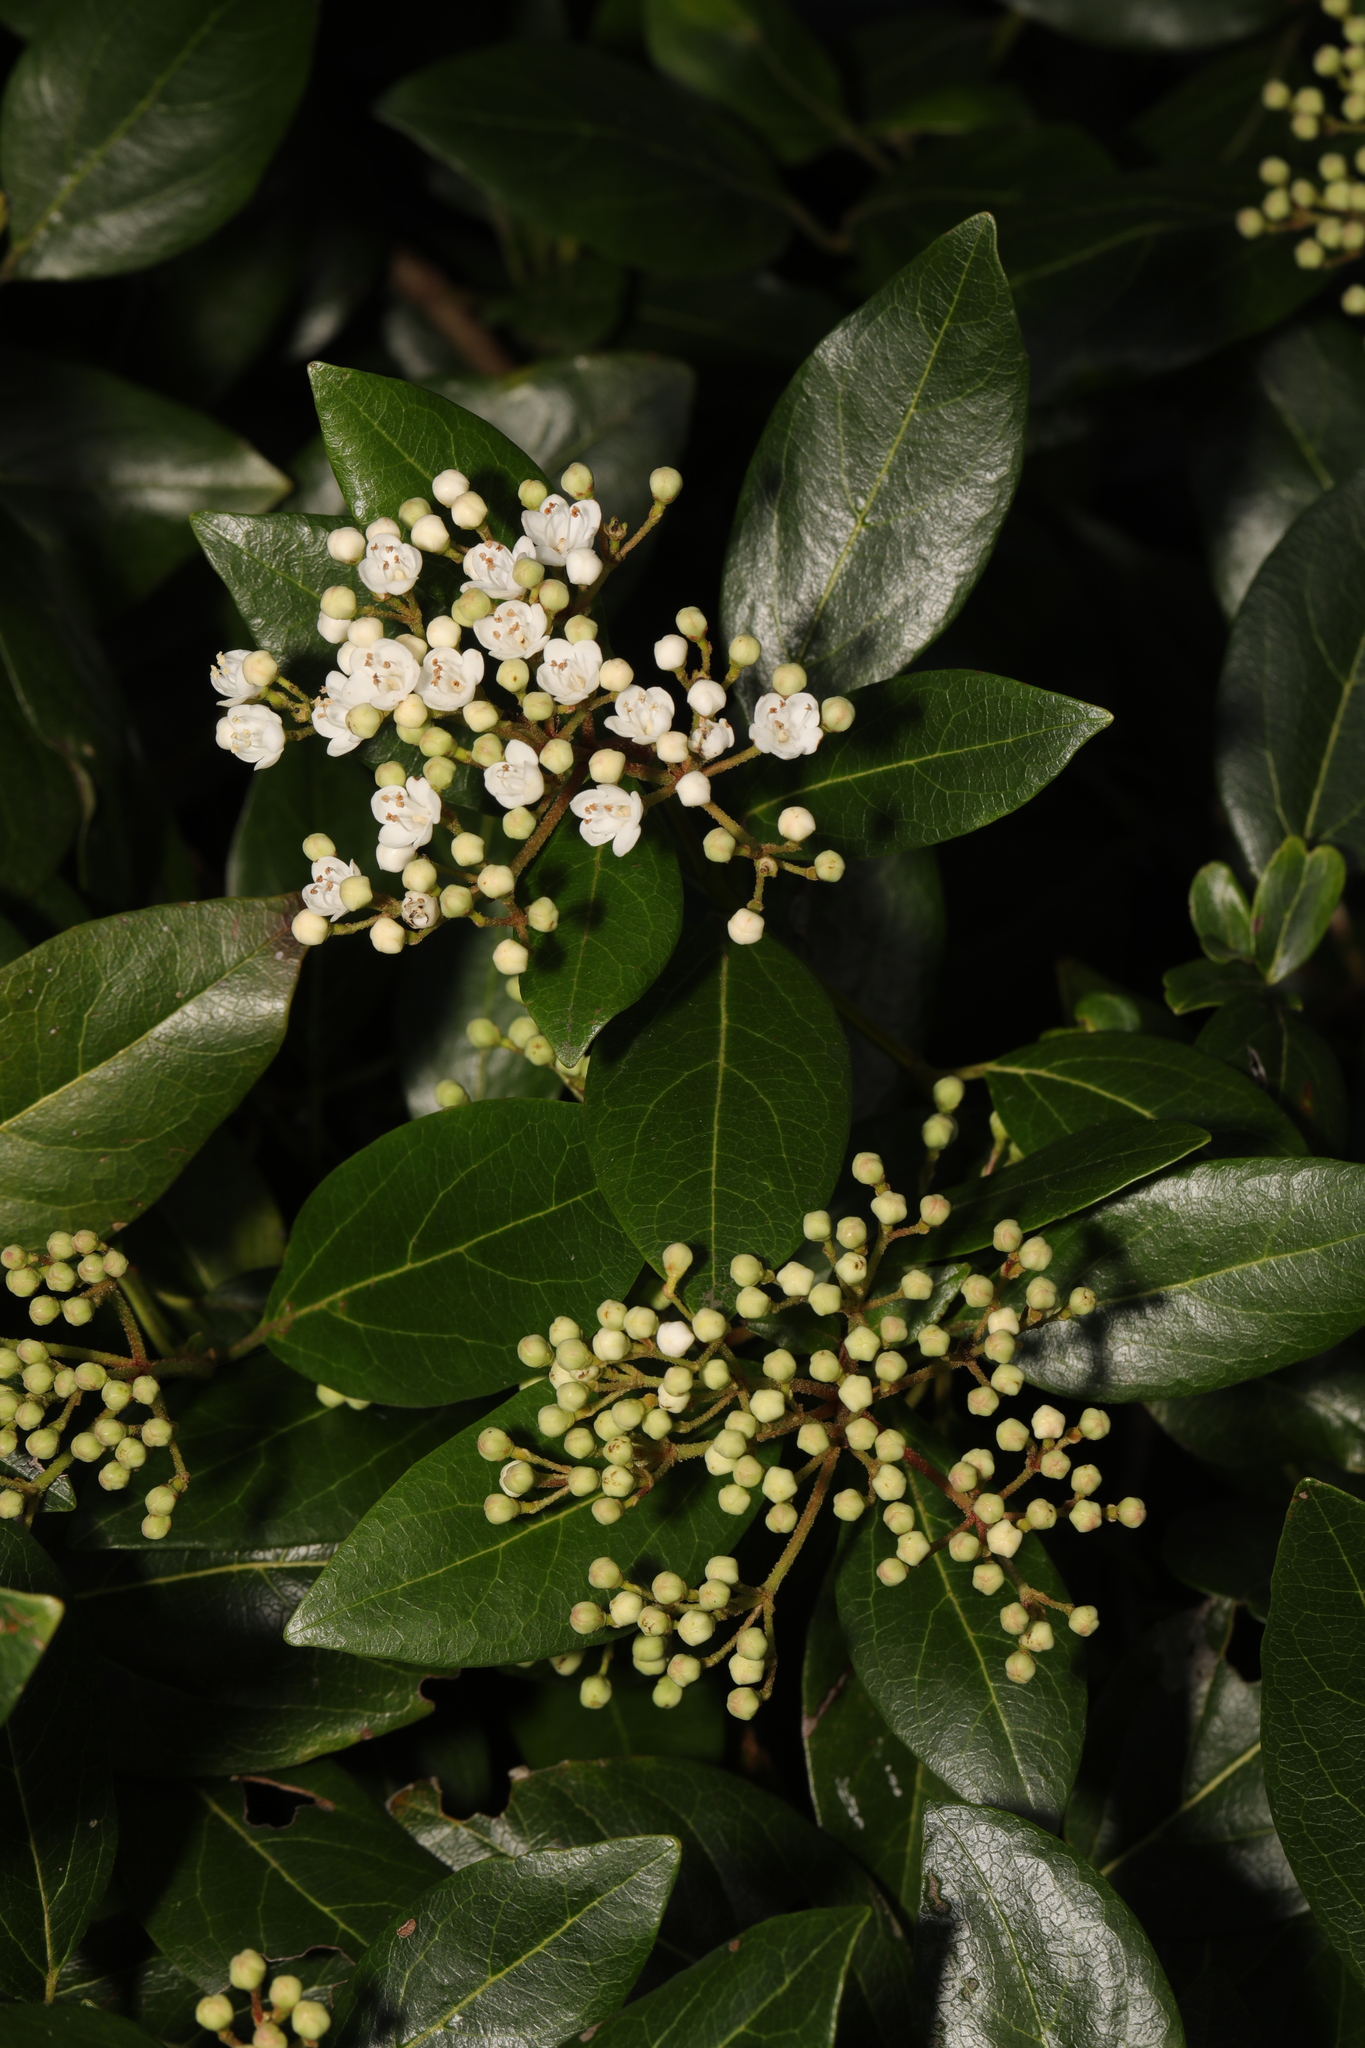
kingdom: Plantae
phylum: Tracheophyta
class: Magnoliopsida
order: Dipsacales
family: Viburnaceae
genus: Viburnum
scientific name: Viburnum tinus
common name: Laurustinus
